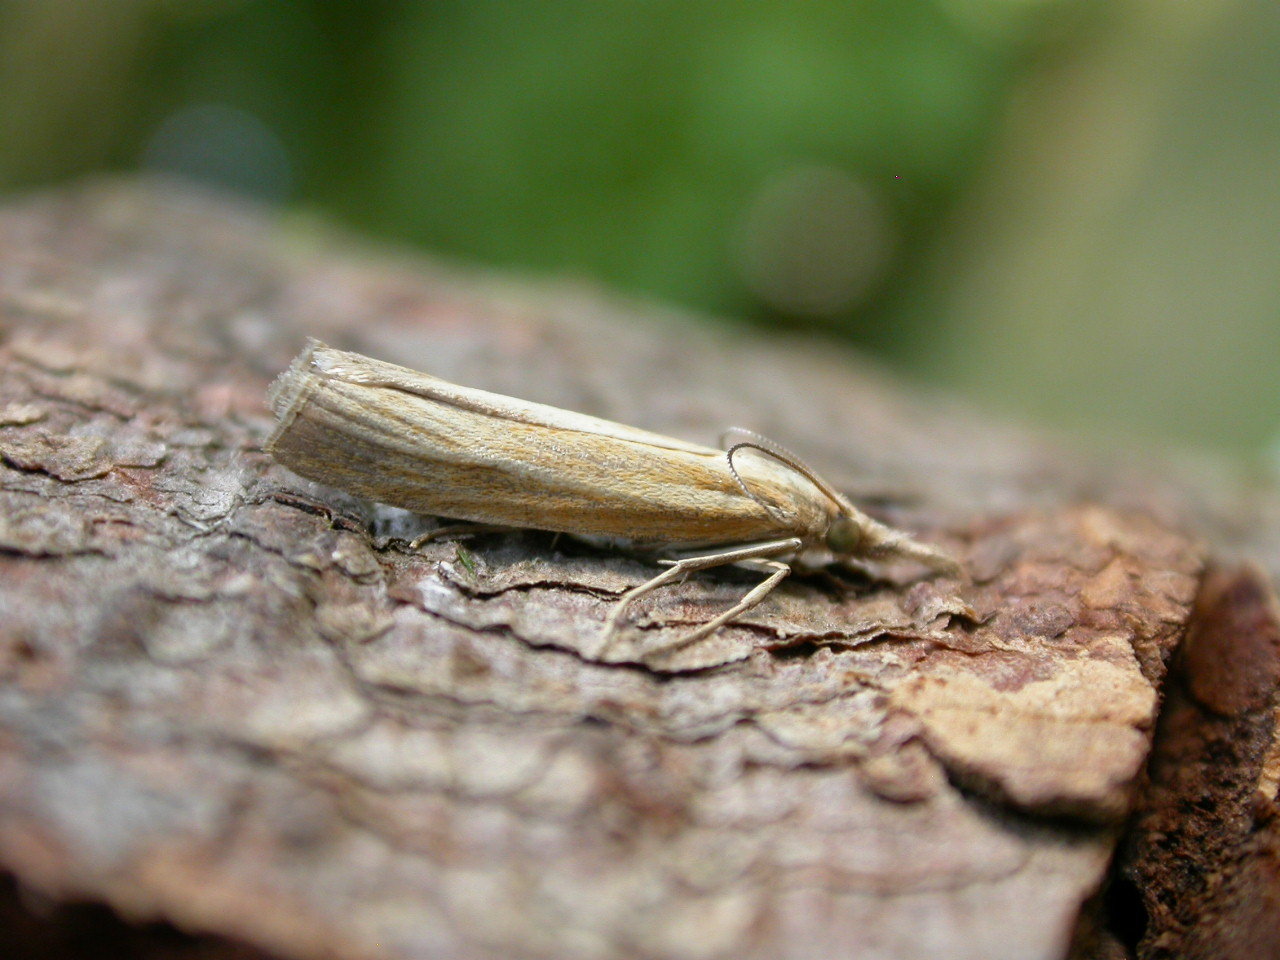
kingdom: Animalia
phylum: Arthropoda
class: Insecta
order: Lepidoptera
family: Crambidae
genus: Agriphila
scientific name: Agriphila tristellus
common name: Common grass-veneer
